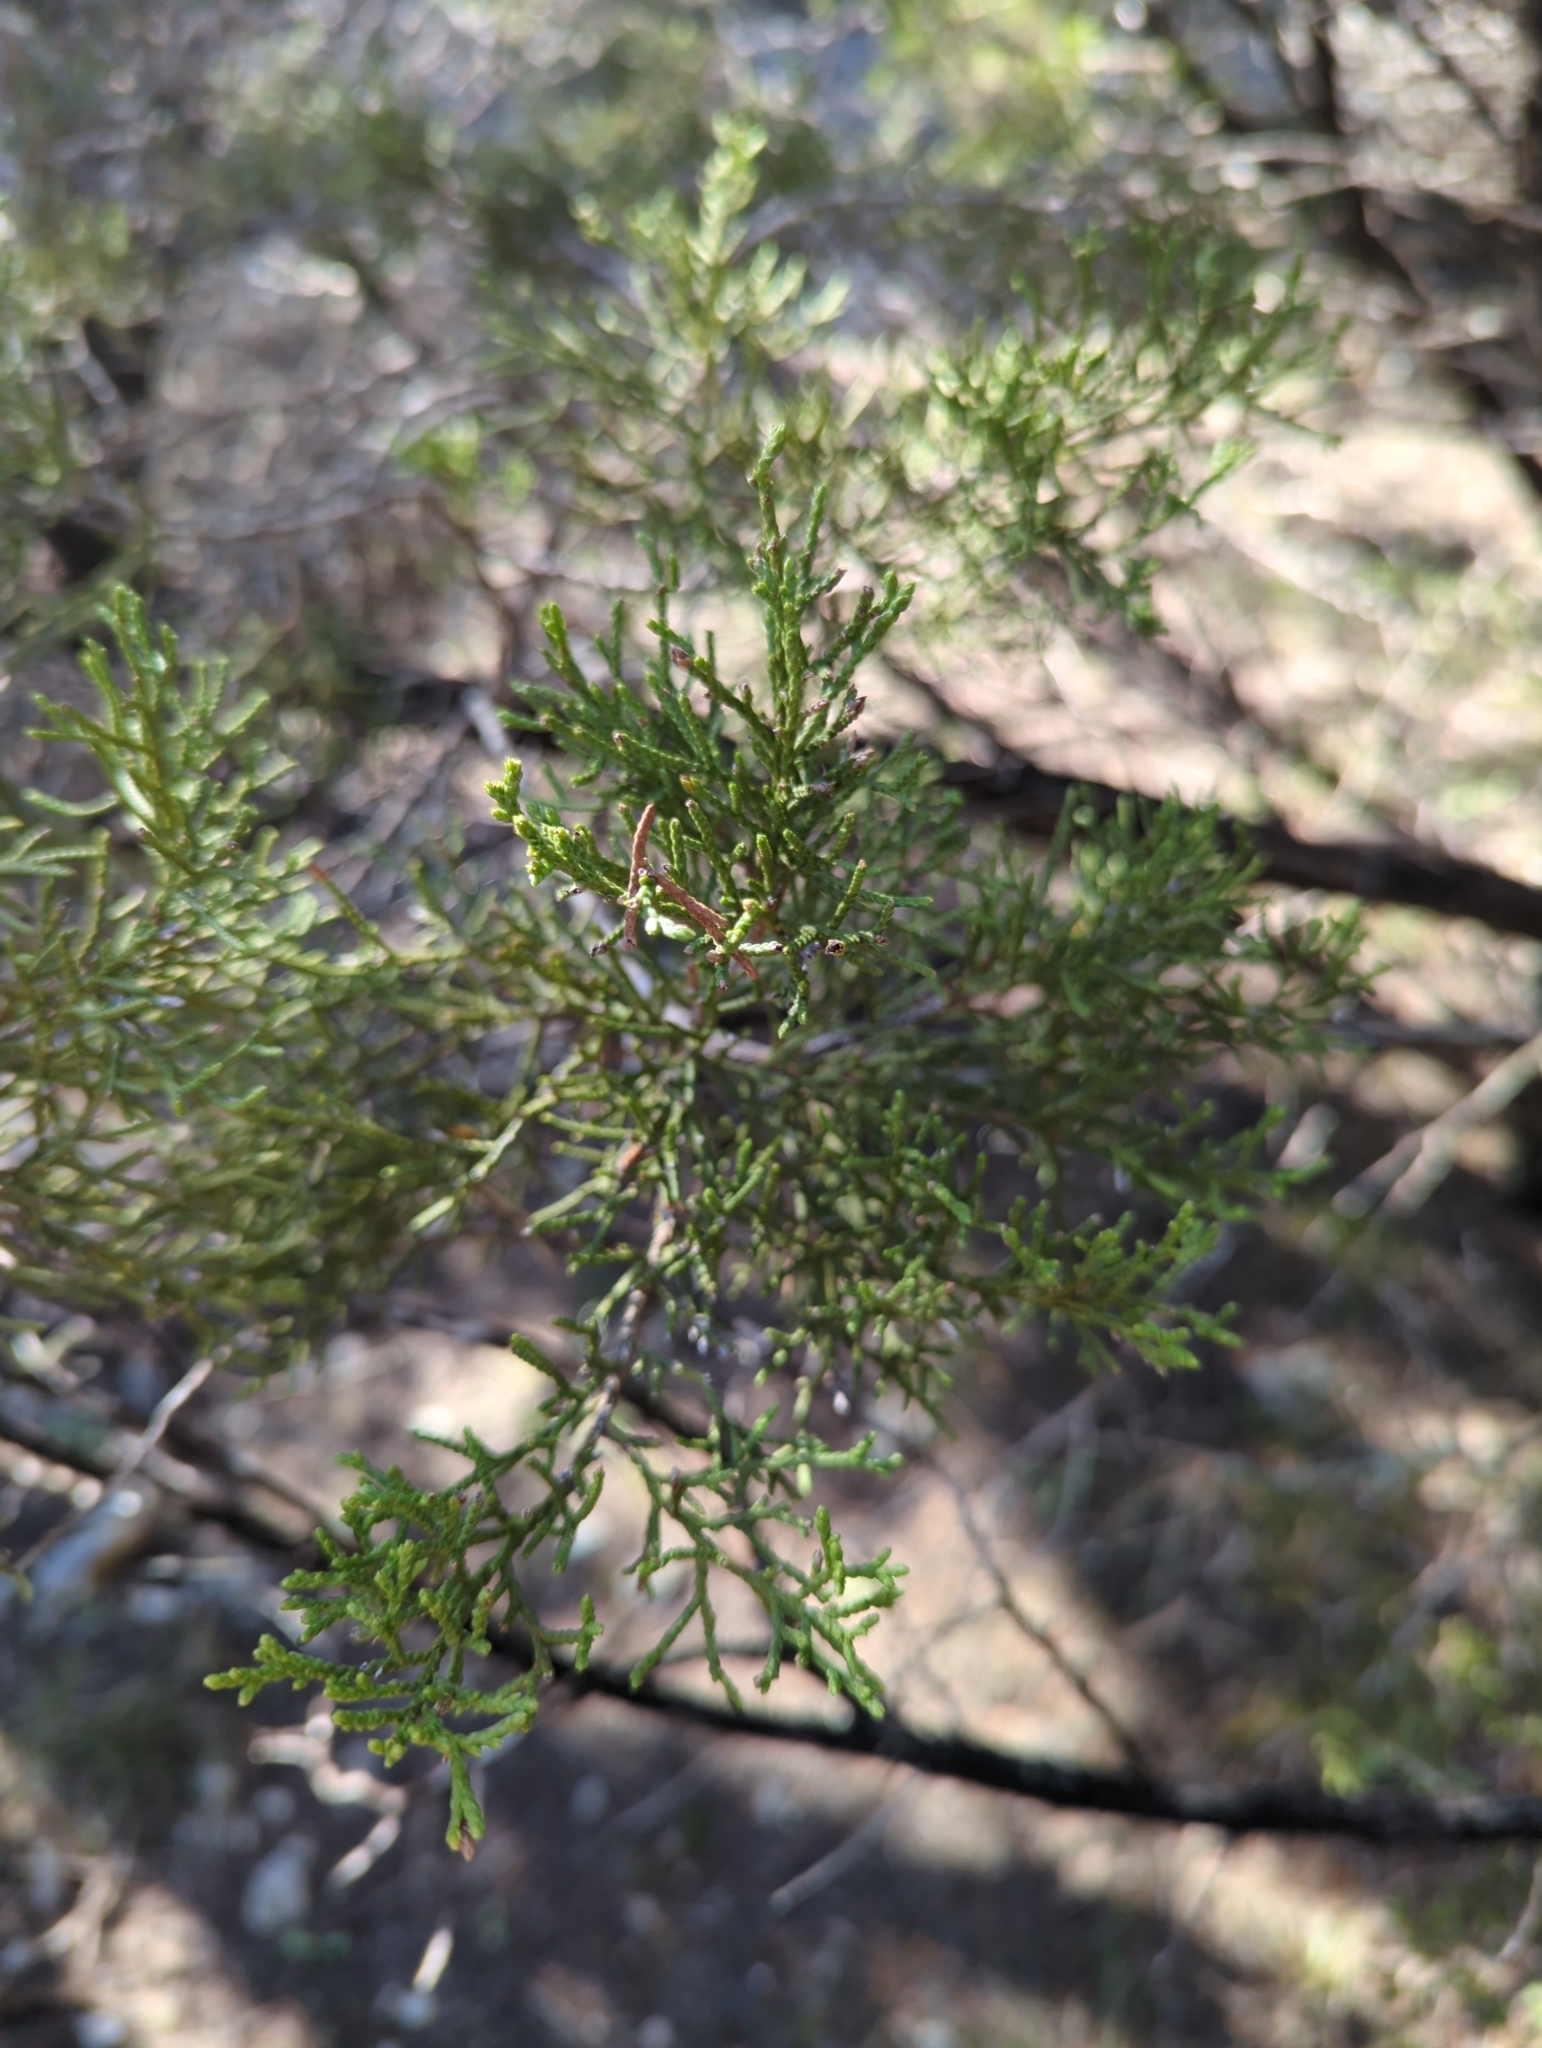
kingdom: Plantae
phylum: Tracheophyta
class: Pinopsida
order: Pinales
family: Cupressaceae
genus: Juniperus
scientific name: Juniperus ashei
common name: Mexican juniper
